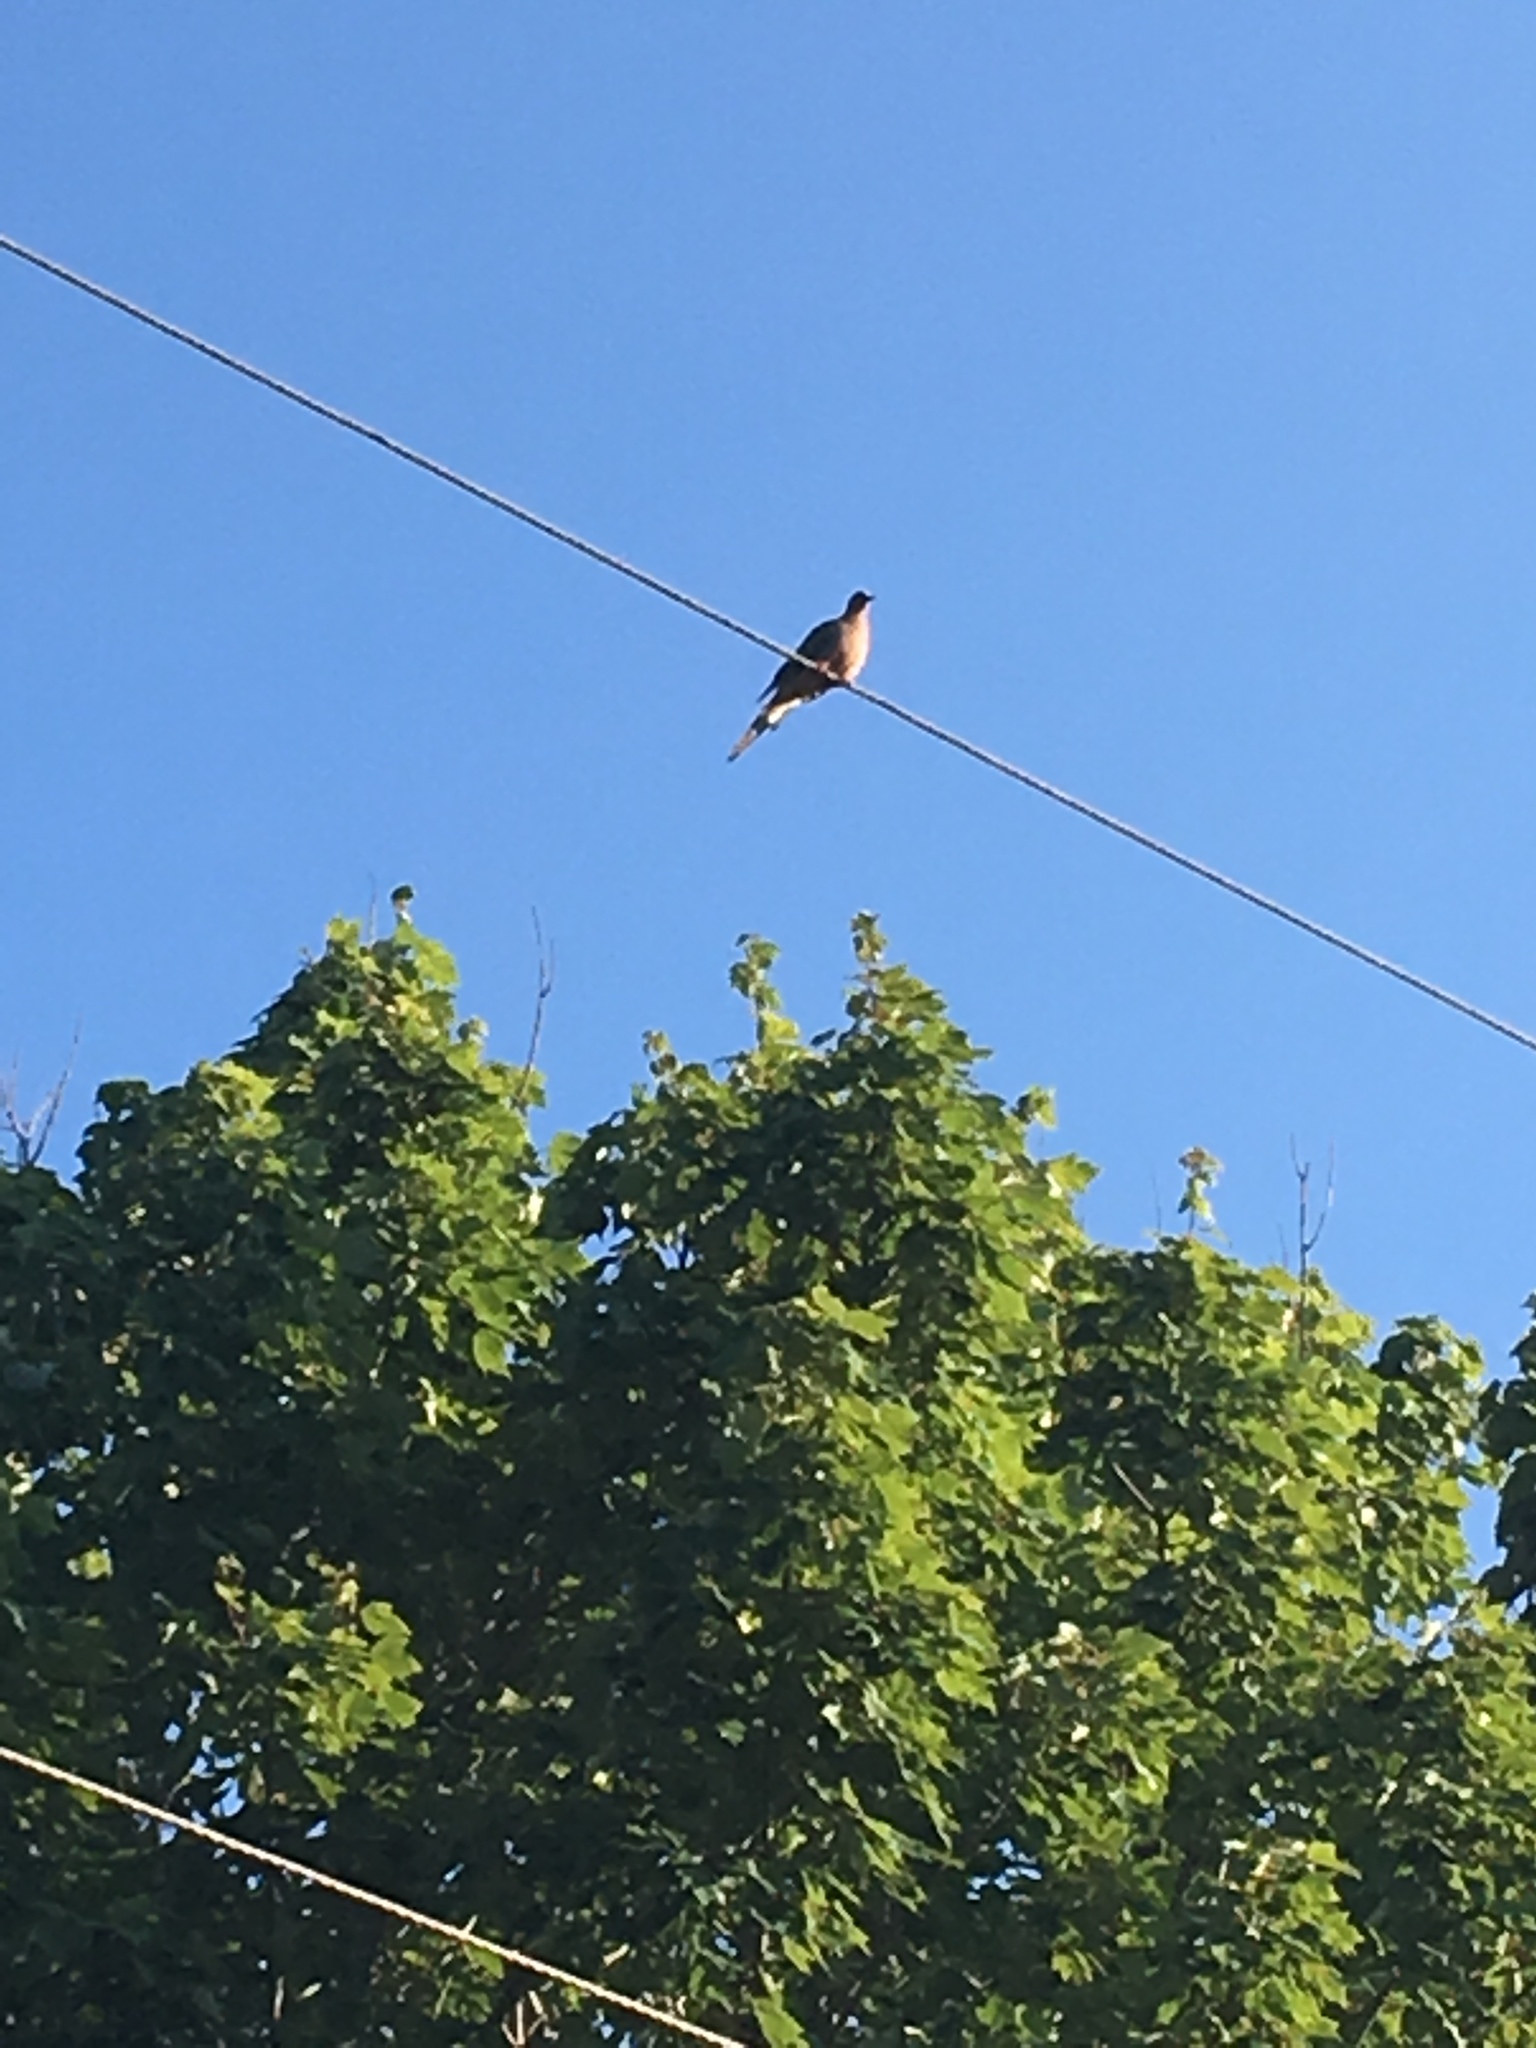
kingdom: Animalia
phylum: Chordata
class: Aves
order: Columbiformes
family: Columbidae
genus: Zenaida
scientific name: Zenaida macroura
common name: Mourning dove
